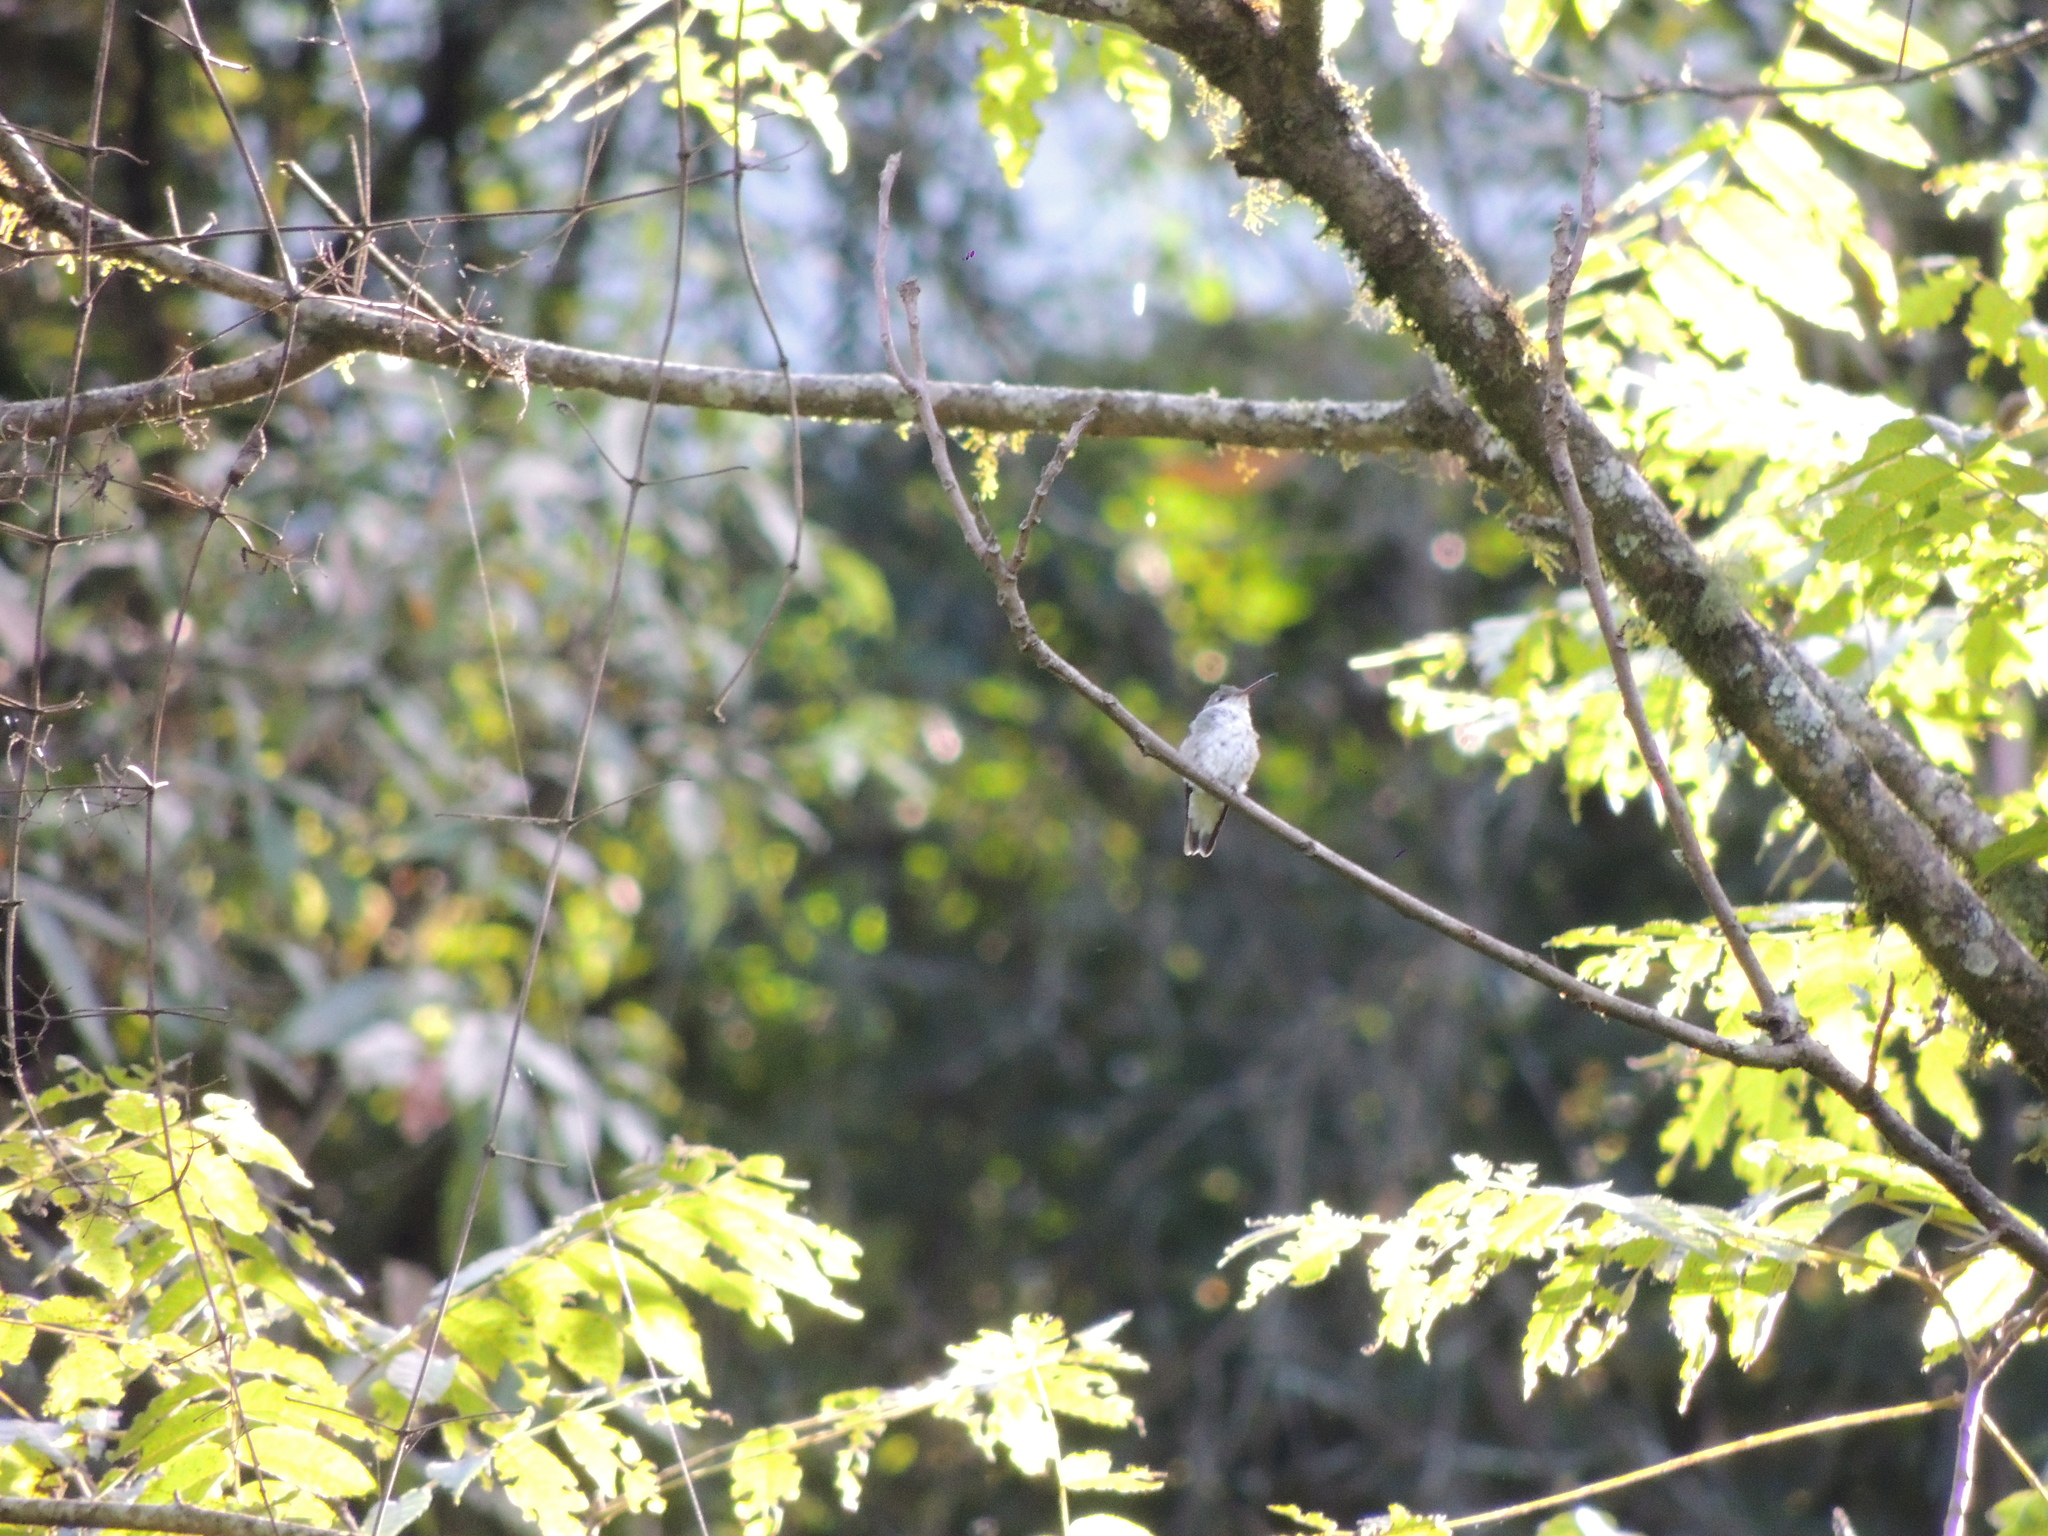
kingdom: Animalia
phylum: Chordata
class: Aves
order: Apodiformes
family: Trochilidae
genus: Elliotomyia
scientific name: Elliotomyia chionogaster
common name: White-bellied hummingbird
